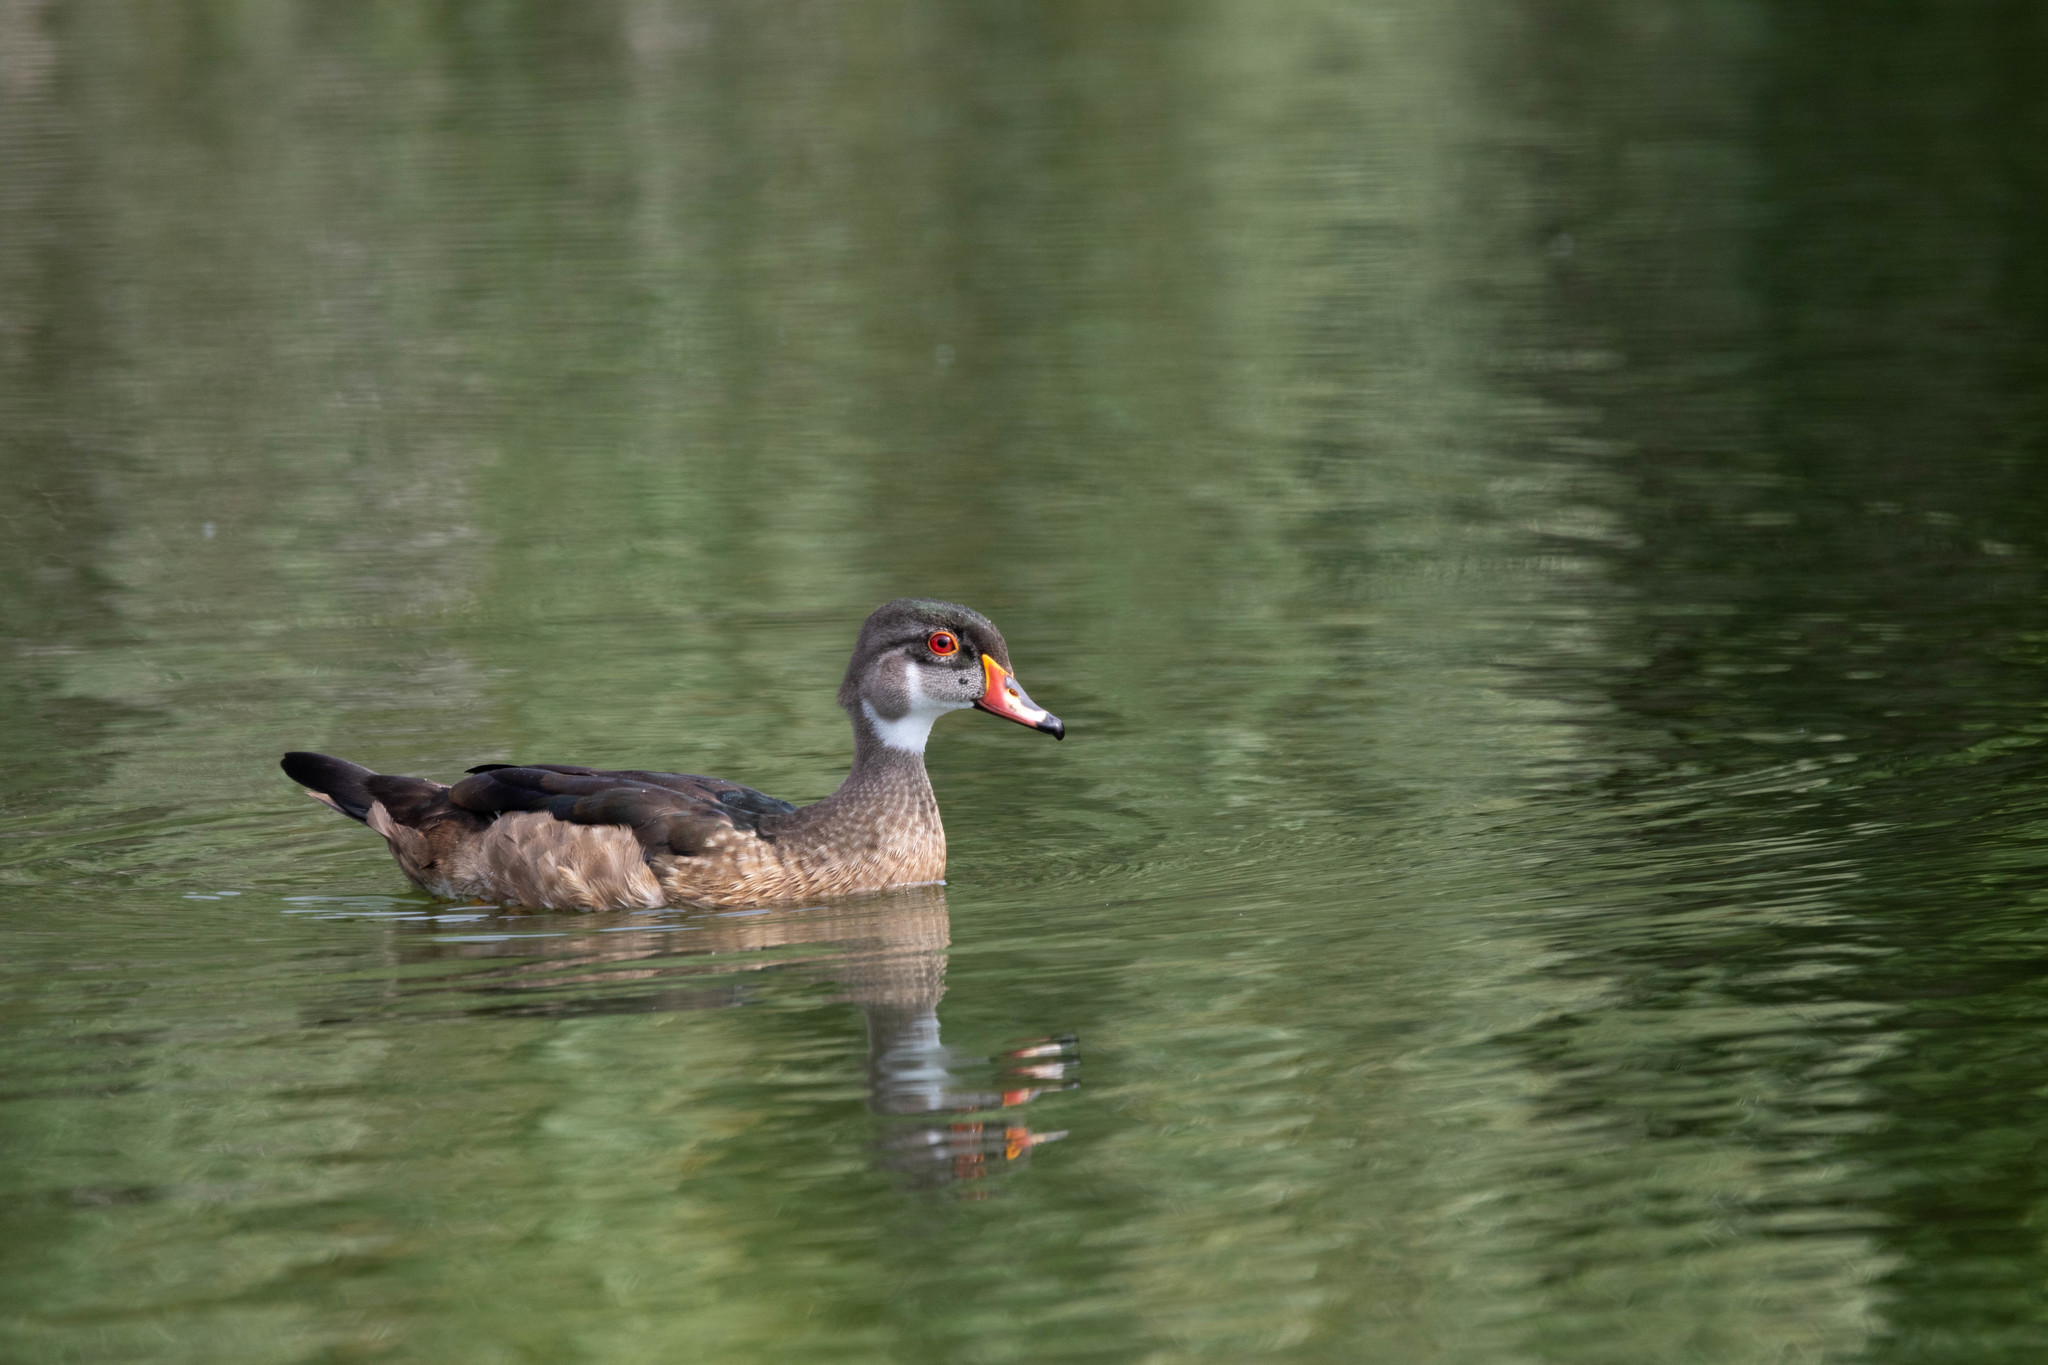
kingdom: Animalia
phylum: Chordata
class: Aves
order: Anseriformes
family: Anatidae
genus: Aix
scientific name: Aix sponsa
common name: Wood duck
